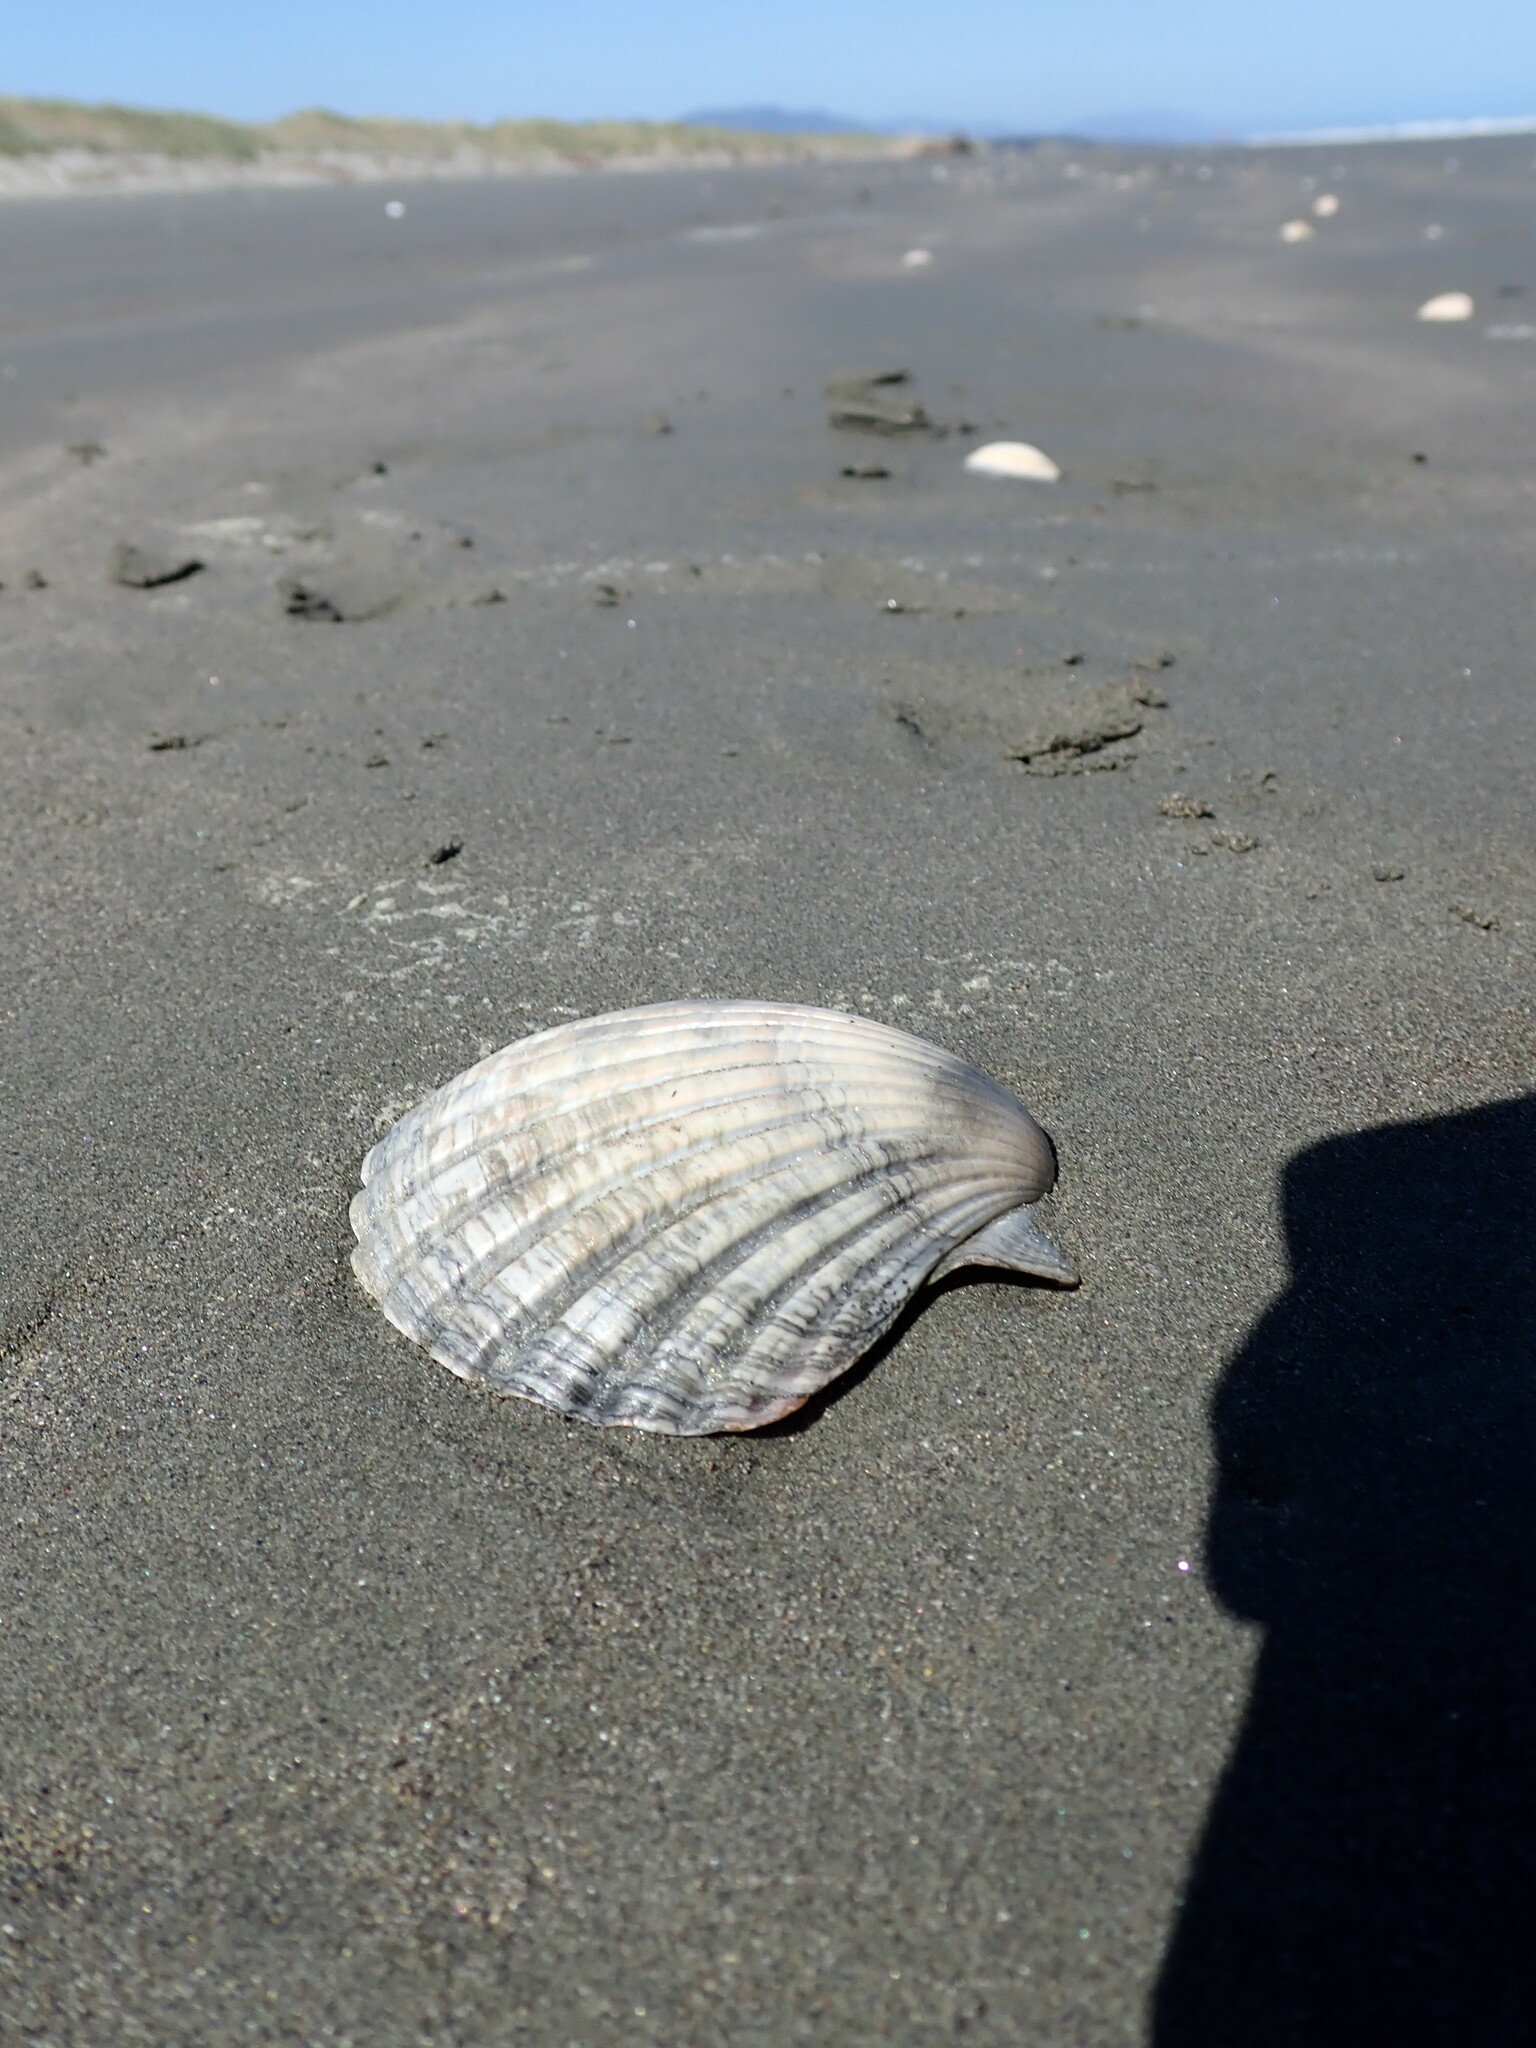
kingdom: Animalia
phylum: Mollusca
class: Bivalvia
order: Pectinida
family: Pectinidae
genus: Pecten
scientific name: Pecten novaezelandiae
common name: New zealand scallop
